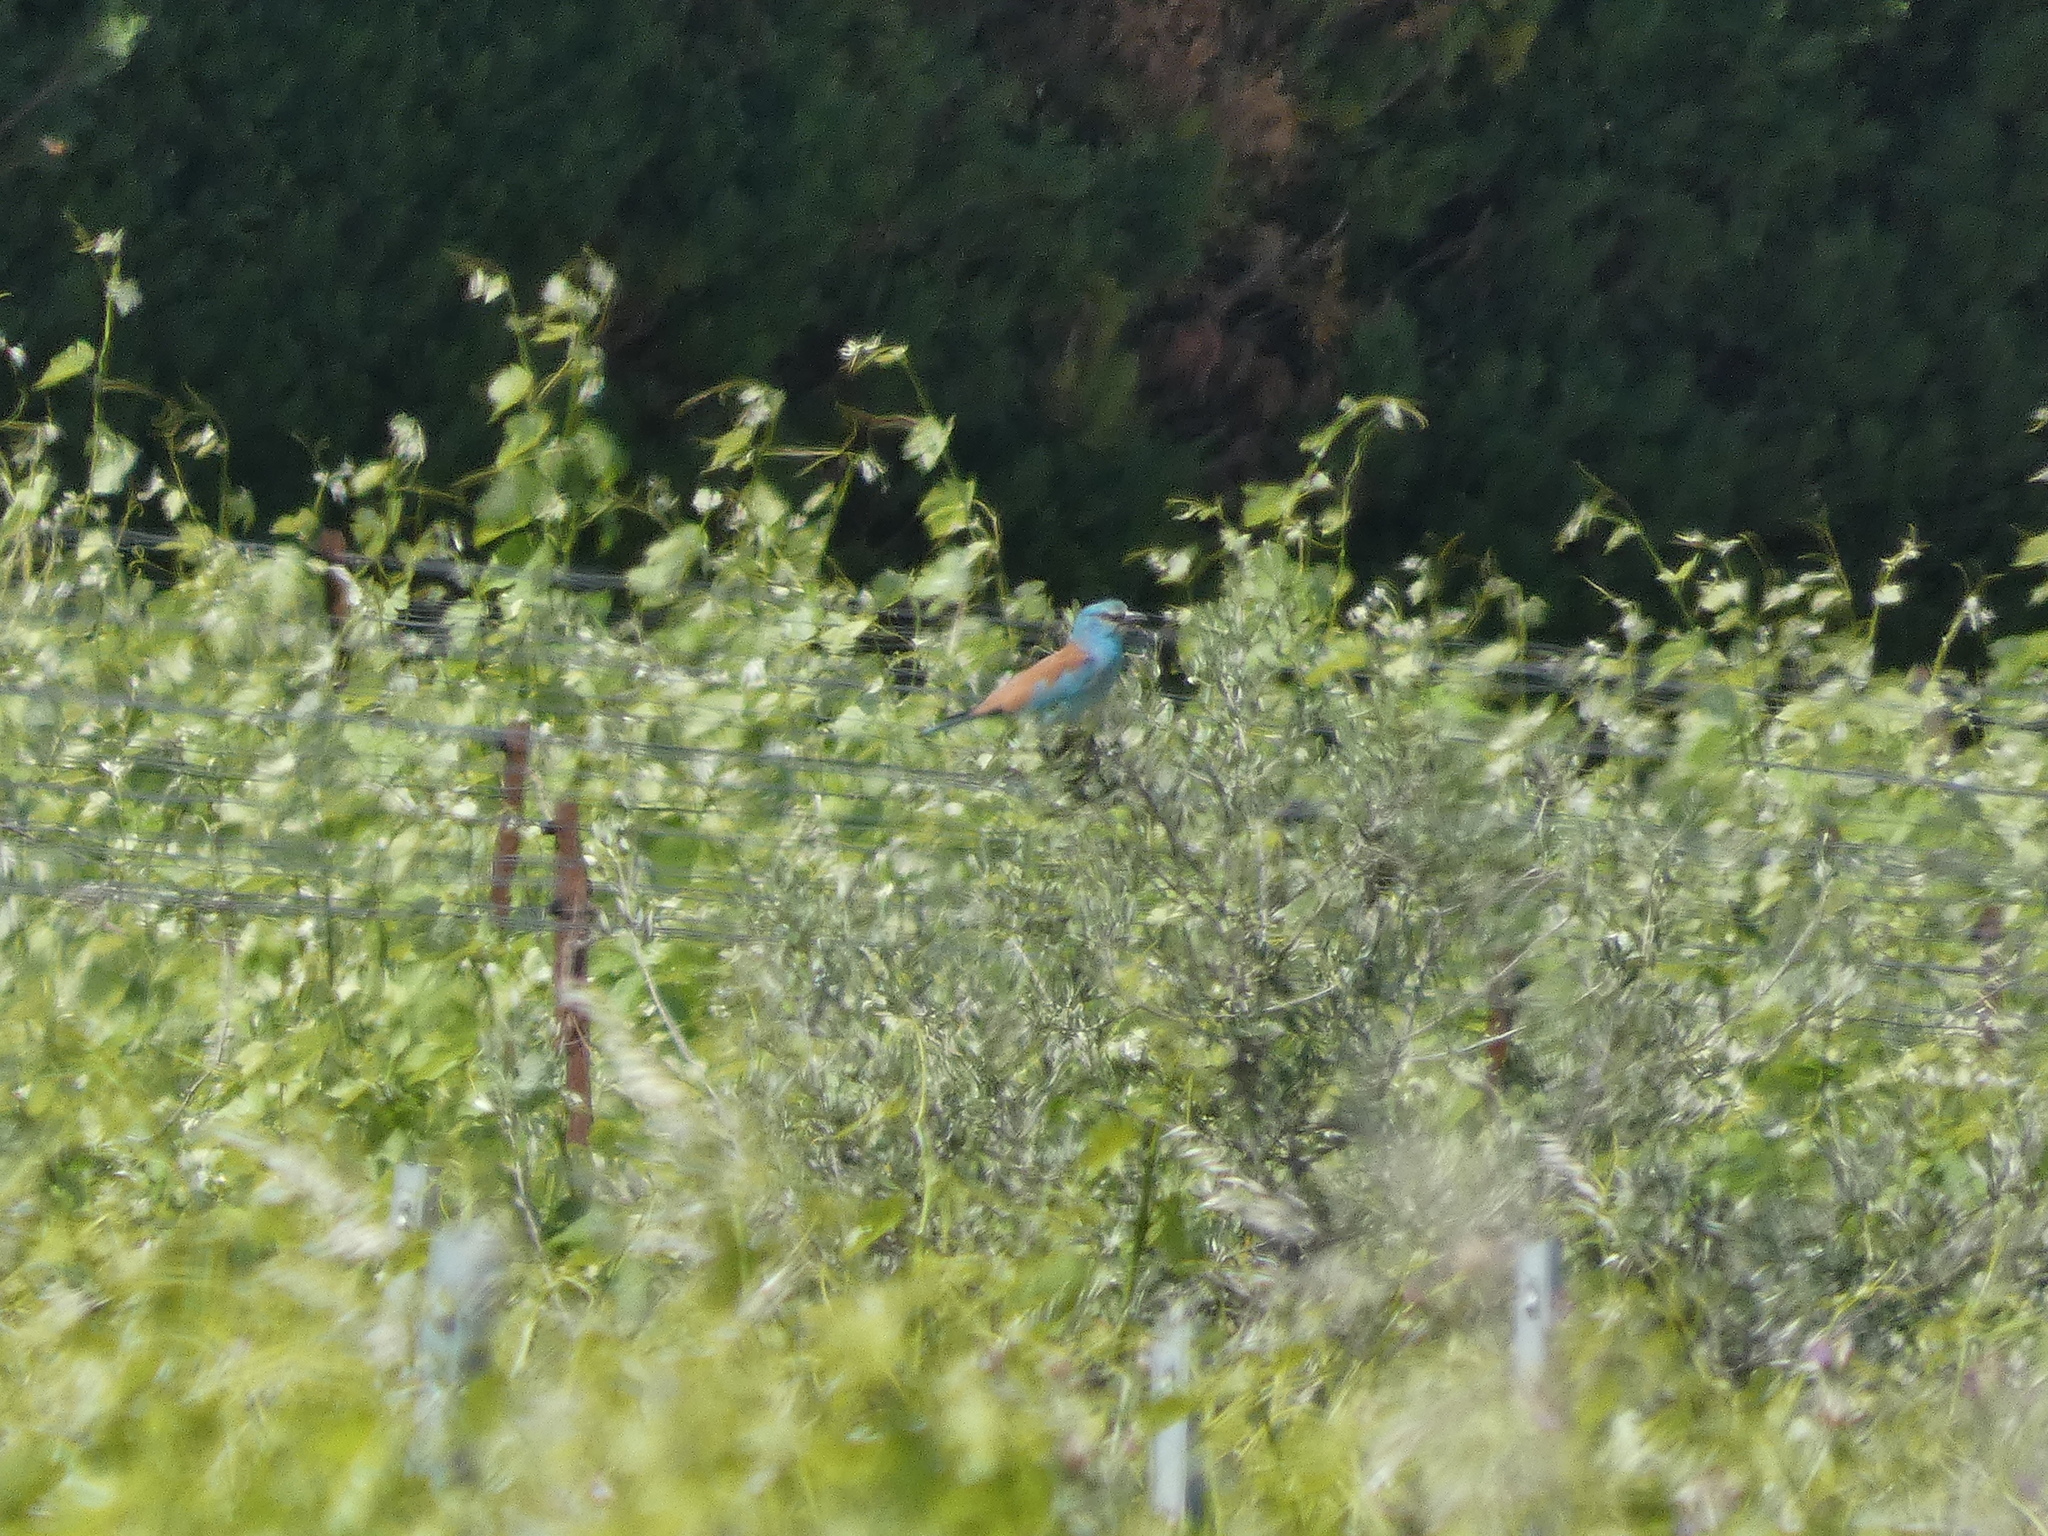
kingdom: Animalia
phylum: Chordata
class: Aves
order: Coraciiformes
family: Coraciidae
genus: Coracias
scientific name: Coracias garrulus
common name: European roller
